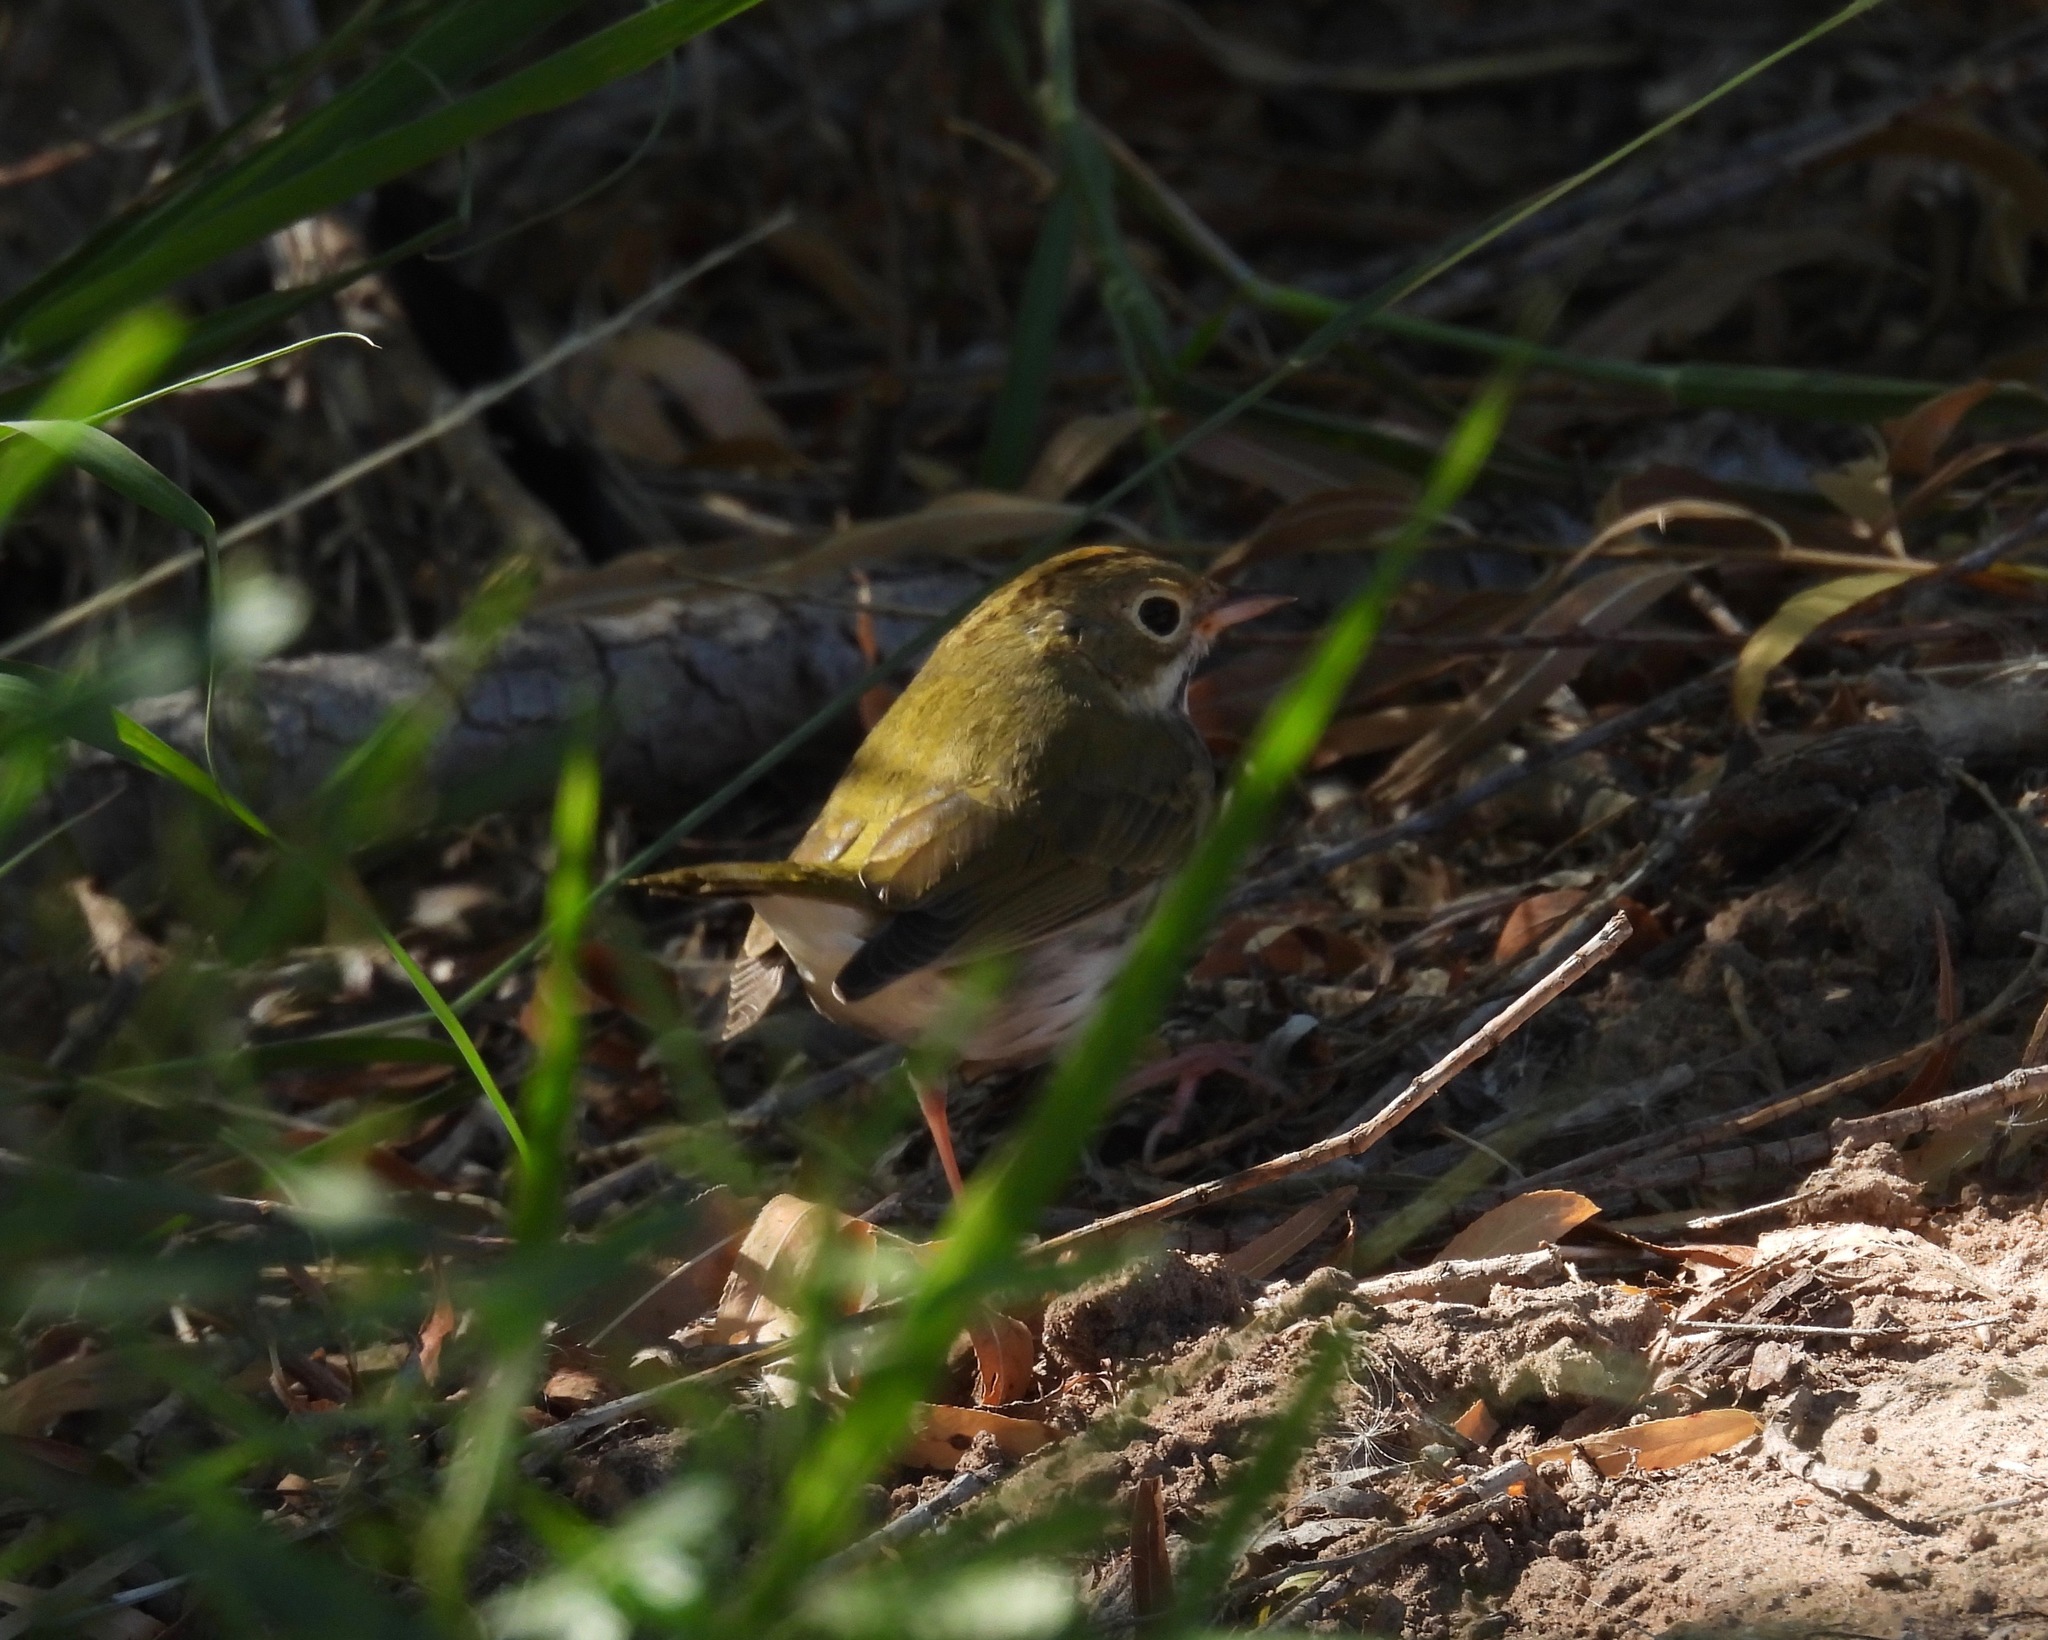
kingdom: Animalia
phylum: Chordata
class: Aves
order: Passeriformes
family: Parulidae
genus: Seiurus
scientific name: Seiurus aurocapilla
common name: Ovenbird
